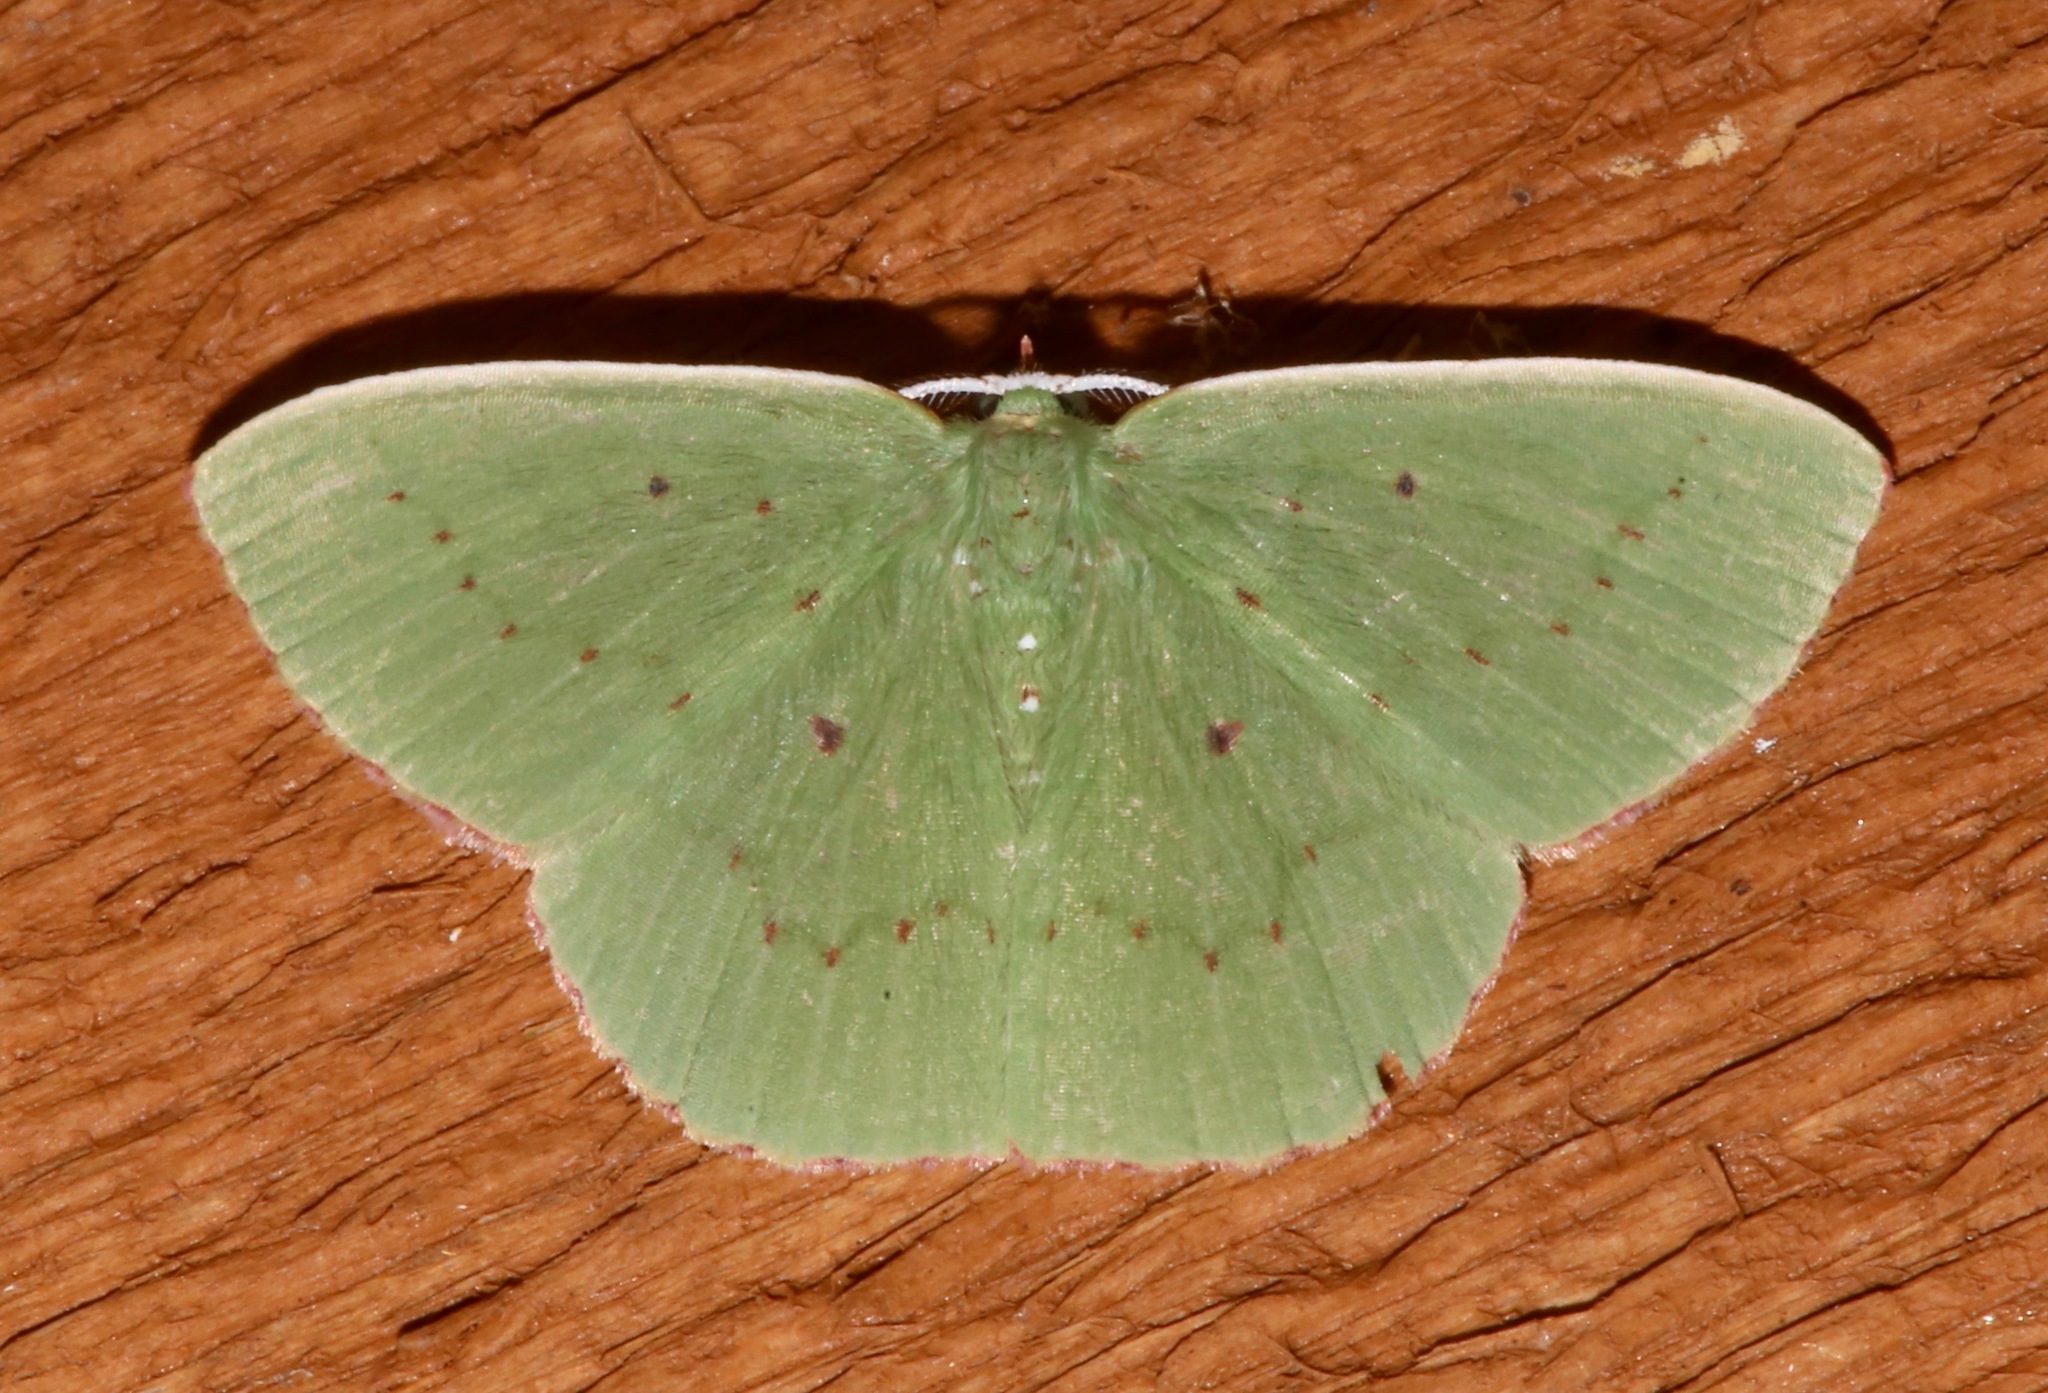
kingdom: Animalia
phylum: Arthropoda
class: Insecta
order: Lepidoptera
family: Geometridae
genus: Phrudocentra
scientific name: Phrudocentra centrifugaria
